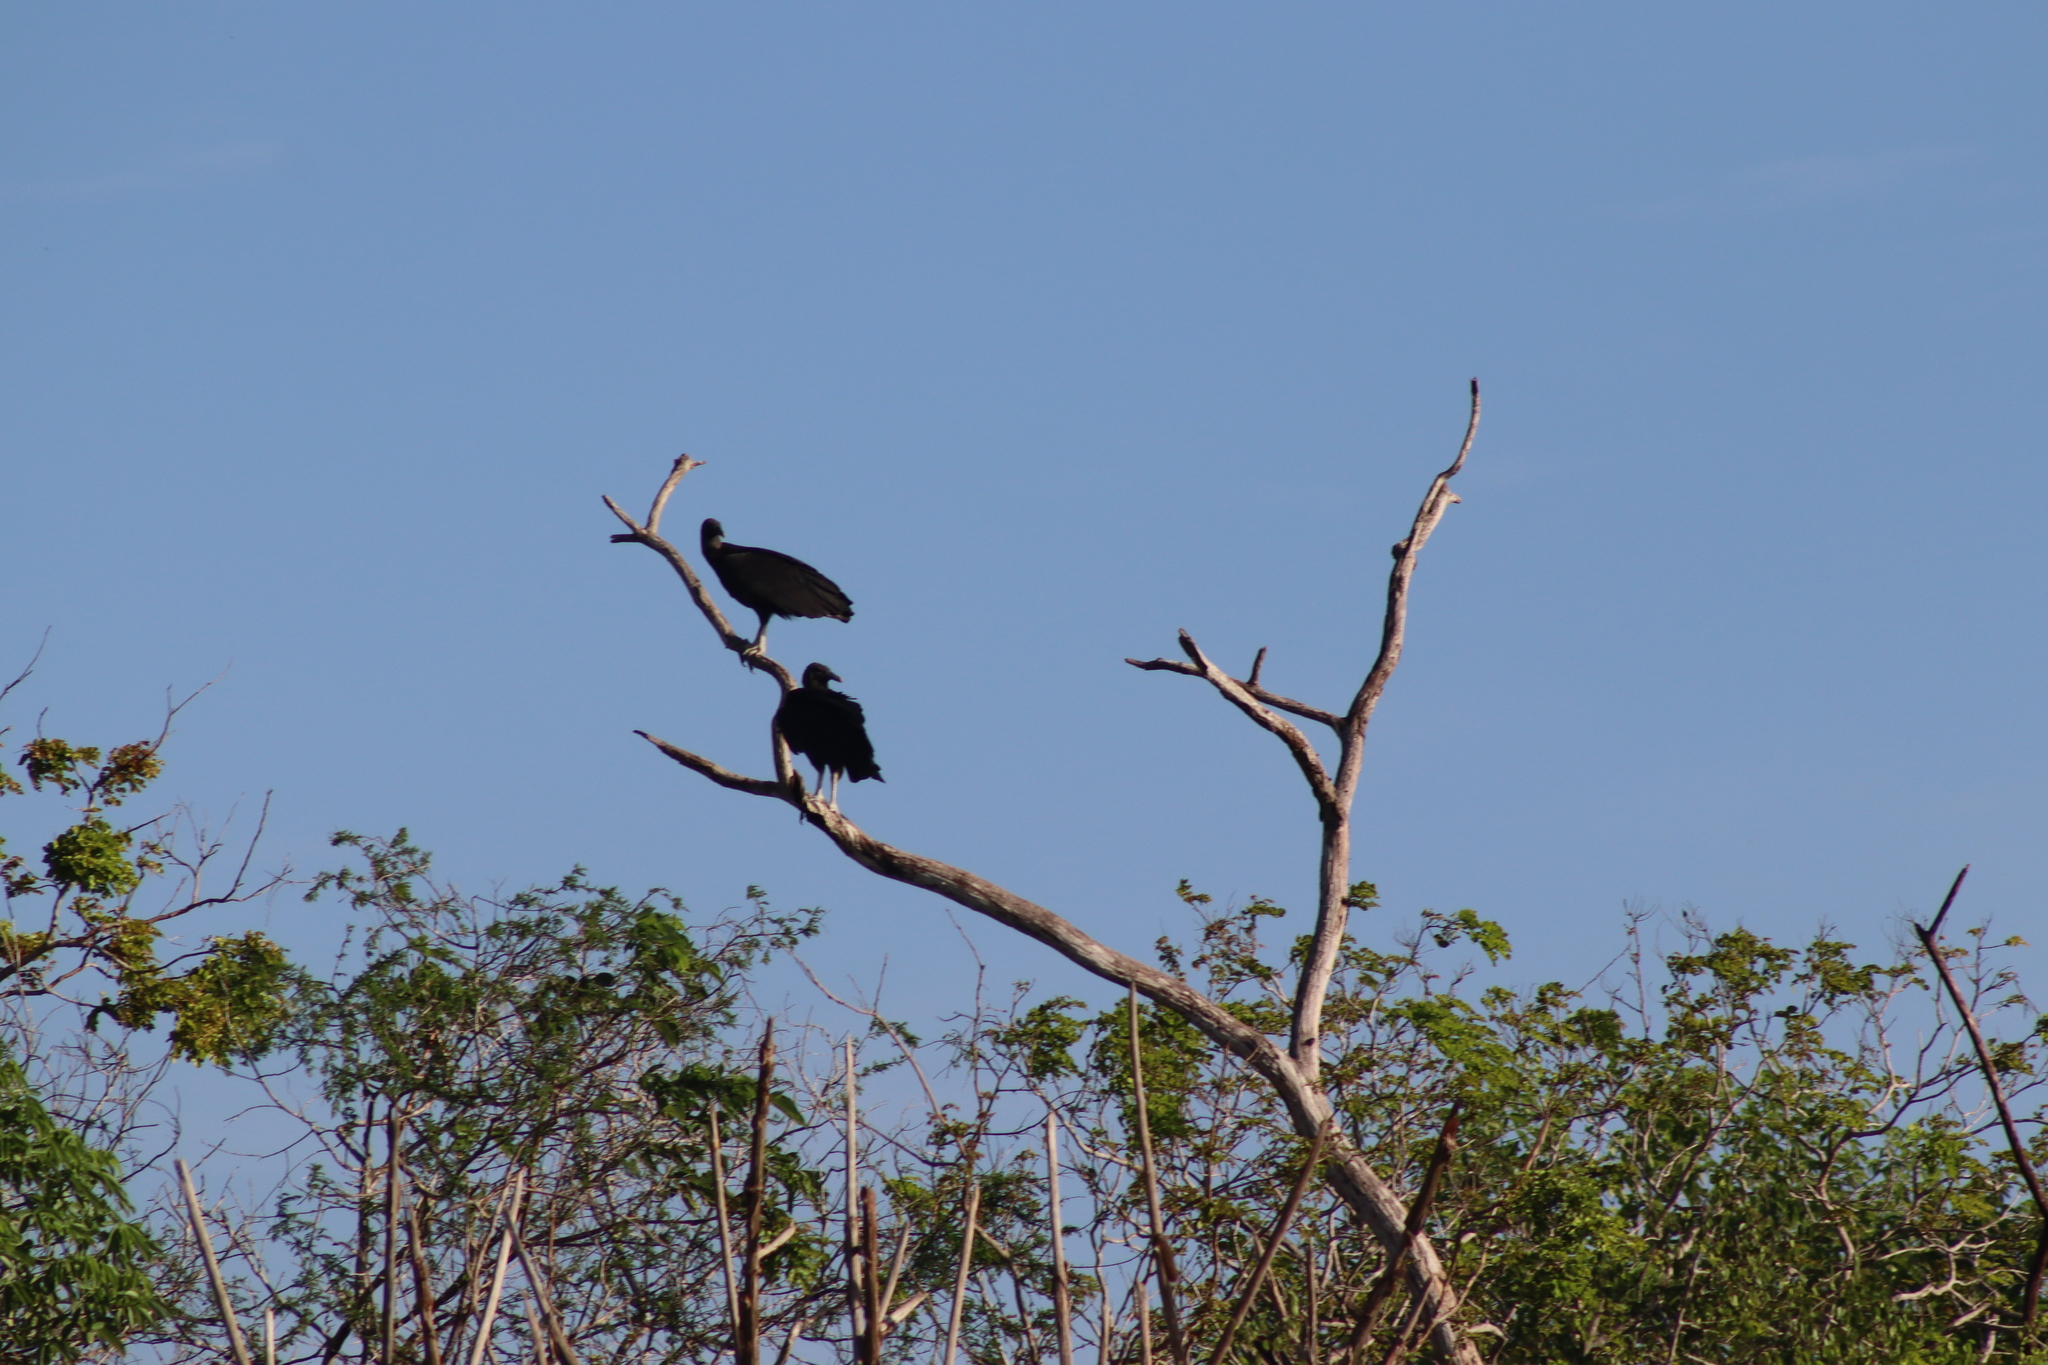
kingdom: Animalia
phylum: Chordata
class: Aves
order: Accipitriformes
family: Cathartidae
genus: Coragyps
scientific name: Coragyps atratus
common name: Black vulture
